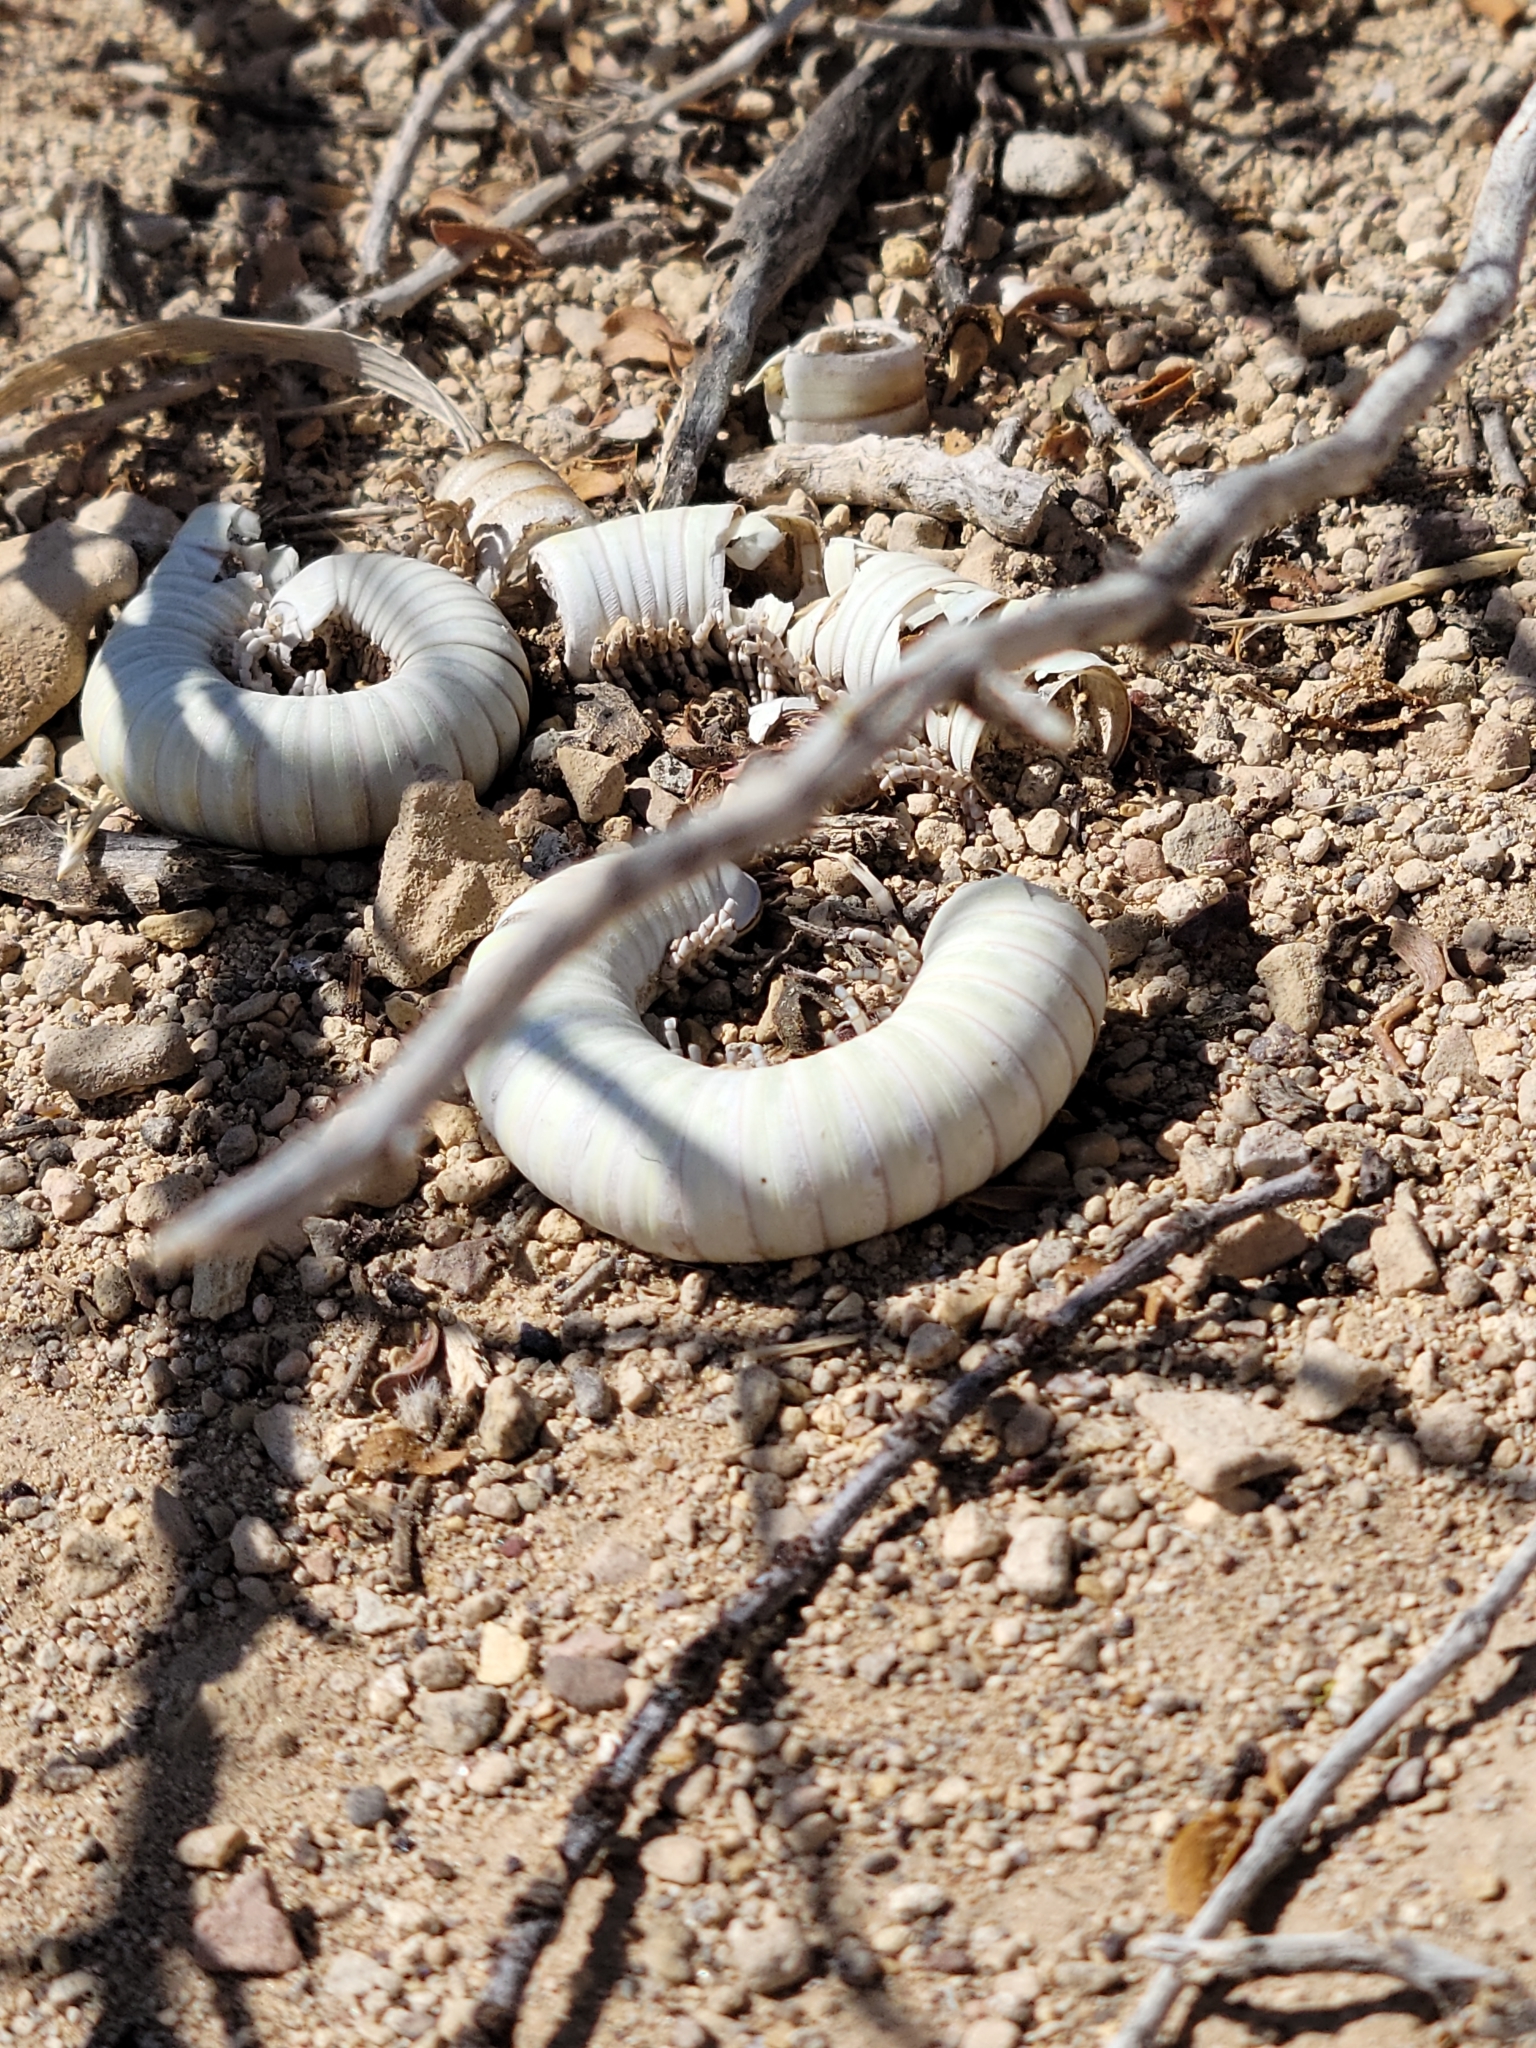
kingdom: Animalia
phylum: Arthropoda
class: Diplopoda
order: Spirostreptida
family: Spirostreptidae
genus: Orthoporus
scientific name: Orthoporus ornatus
